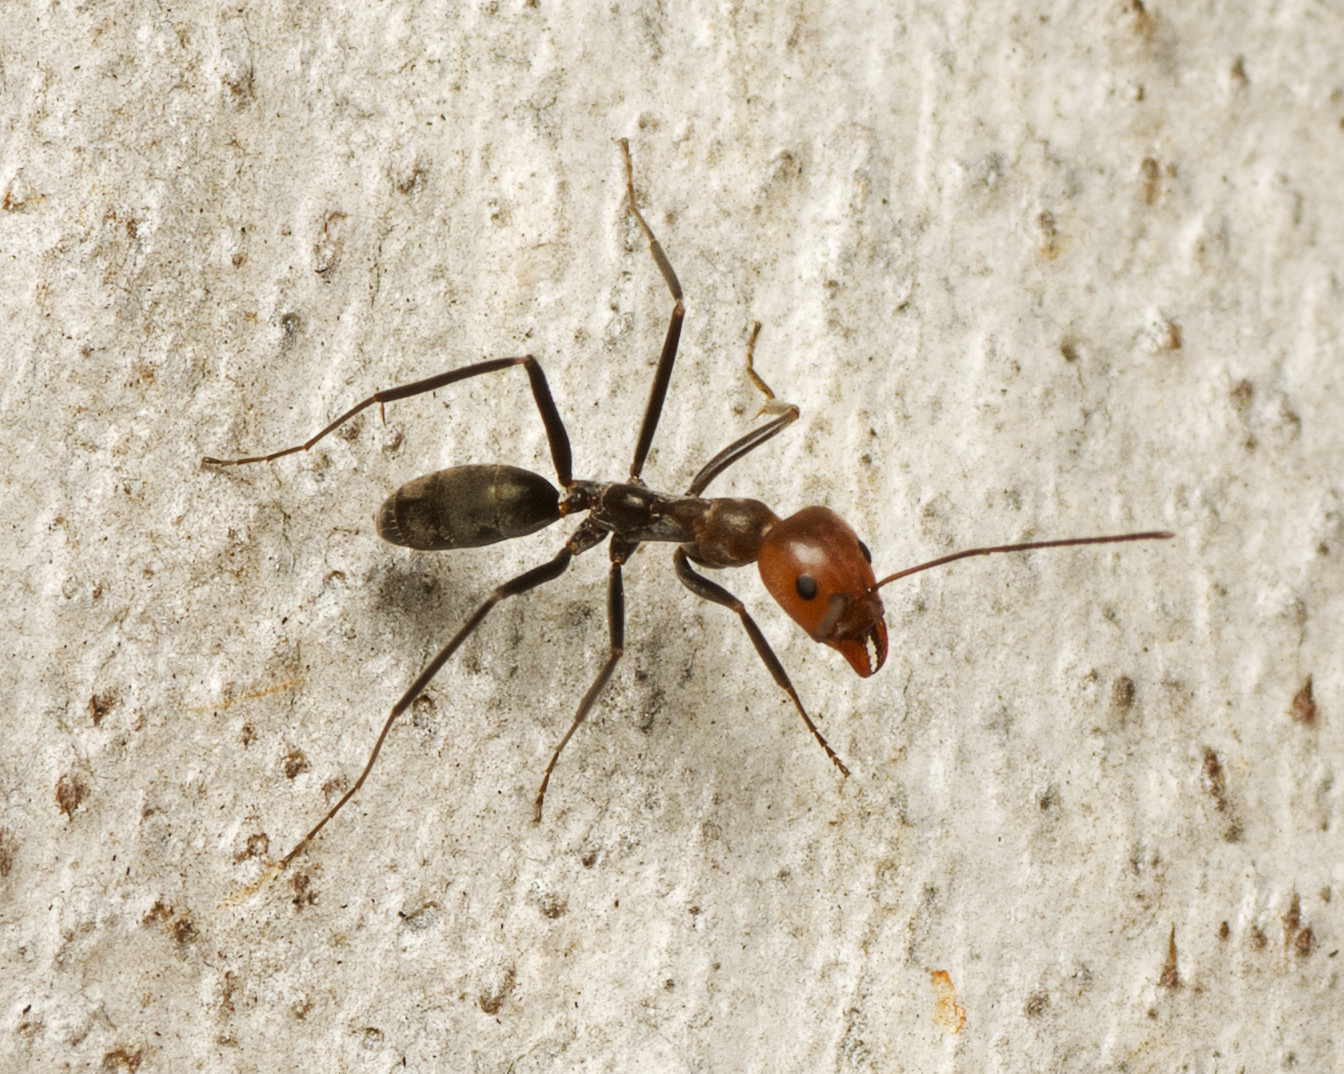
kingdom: Animalia
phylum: Arthropoda
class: Insecta
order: Hymenoptera
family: Formicidae
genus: Iridomyrmex
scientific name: Iridomyrmex
